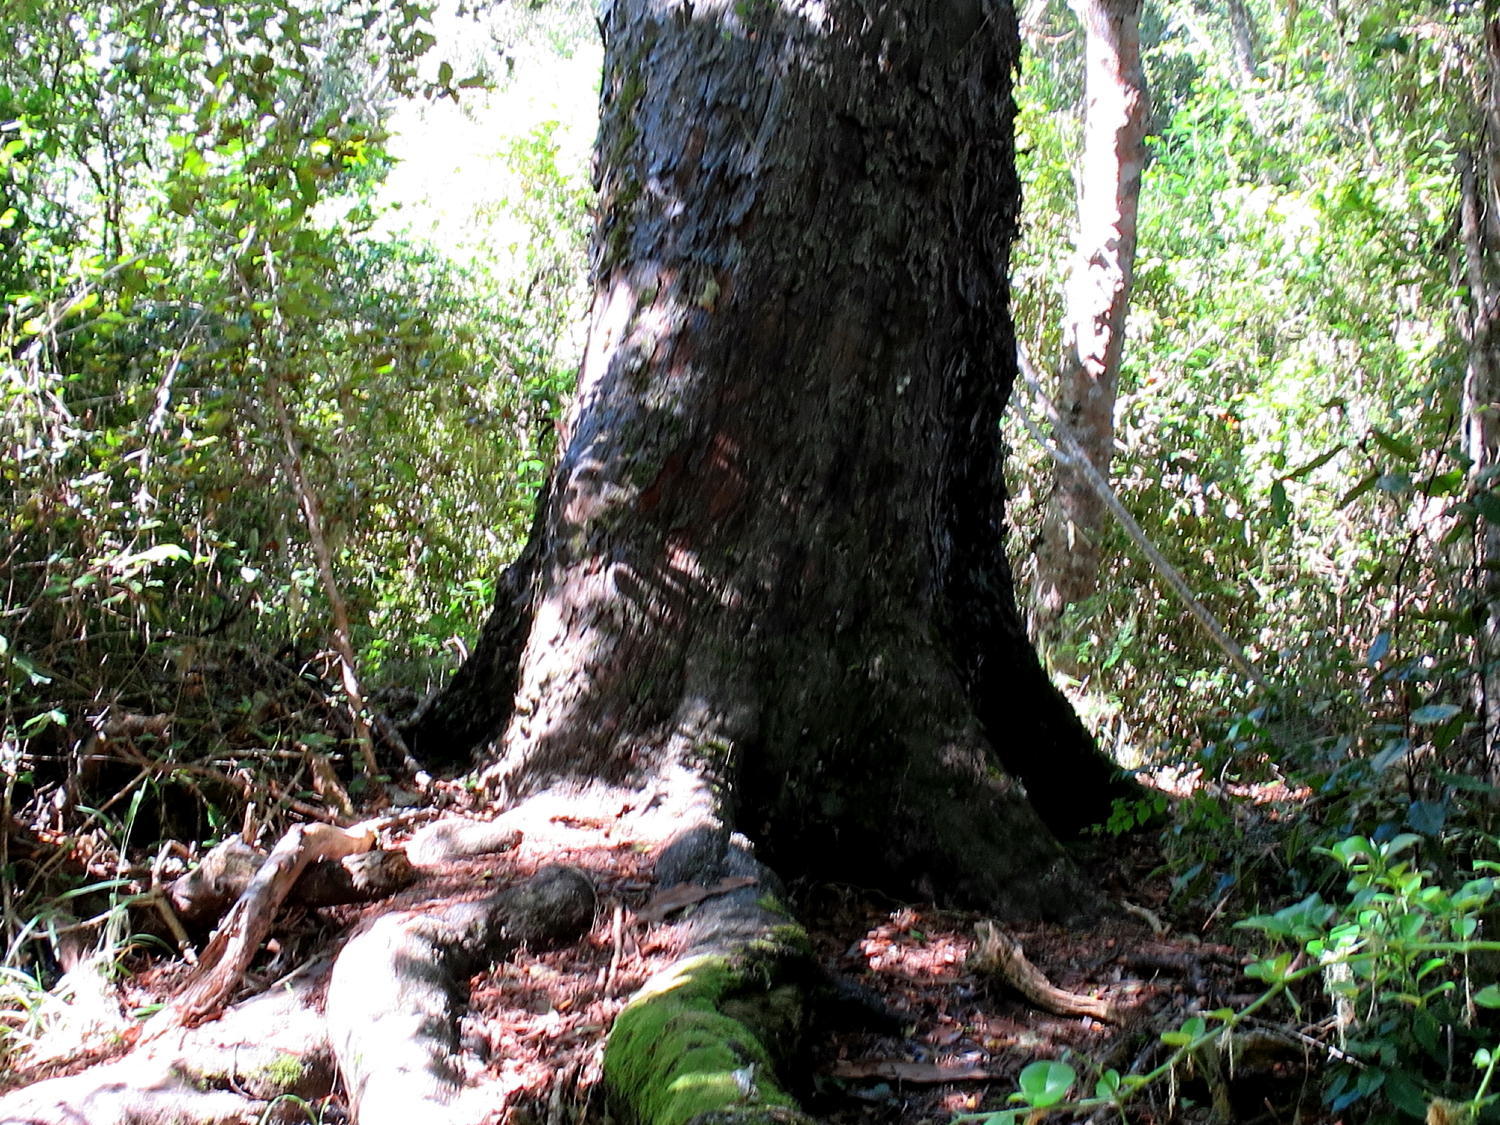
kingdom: Plantae
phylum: Tracheophyta
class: Pinopsida
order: Pinales
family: Podocarpaceae
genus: Afrocarpus
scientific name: Afrocarpus falcatus
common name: Bastard yellowwood
